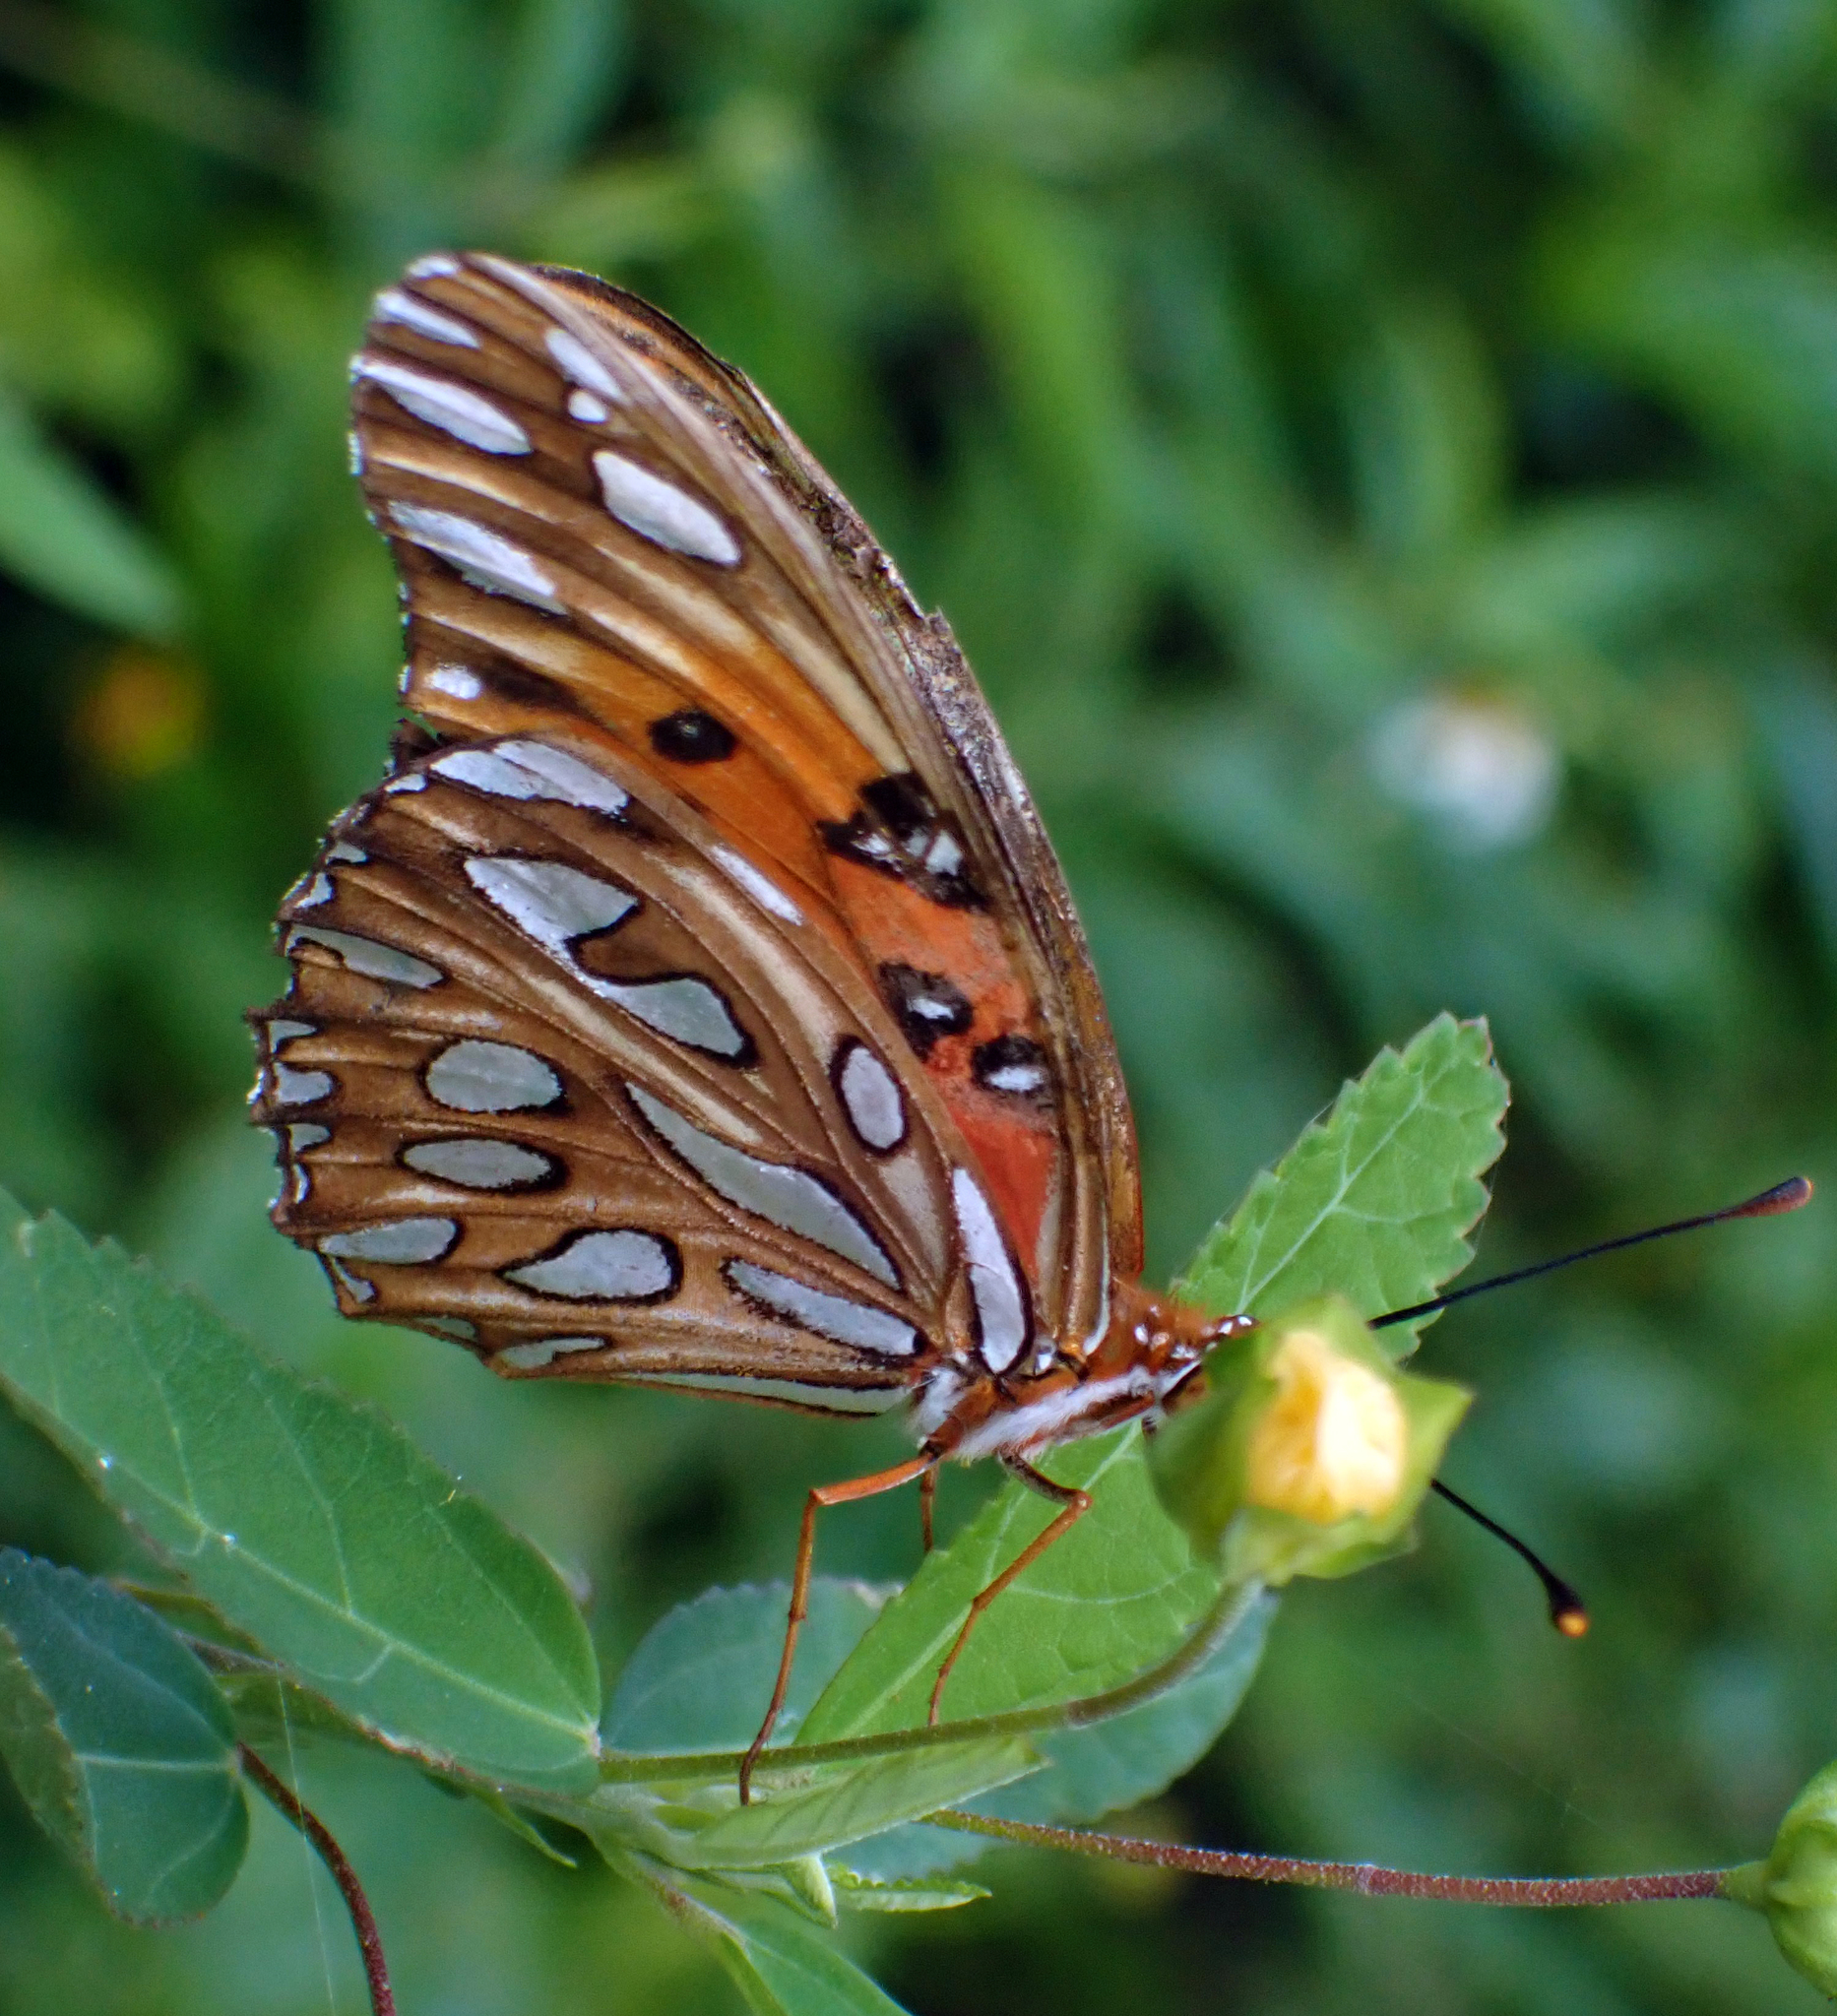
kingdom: Animalia
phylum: Arthropoda
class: Insecta
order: Lepidoptera
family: Nymphalidae
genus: Dione
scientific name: Dione vanillae
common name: Gulf fritillary
